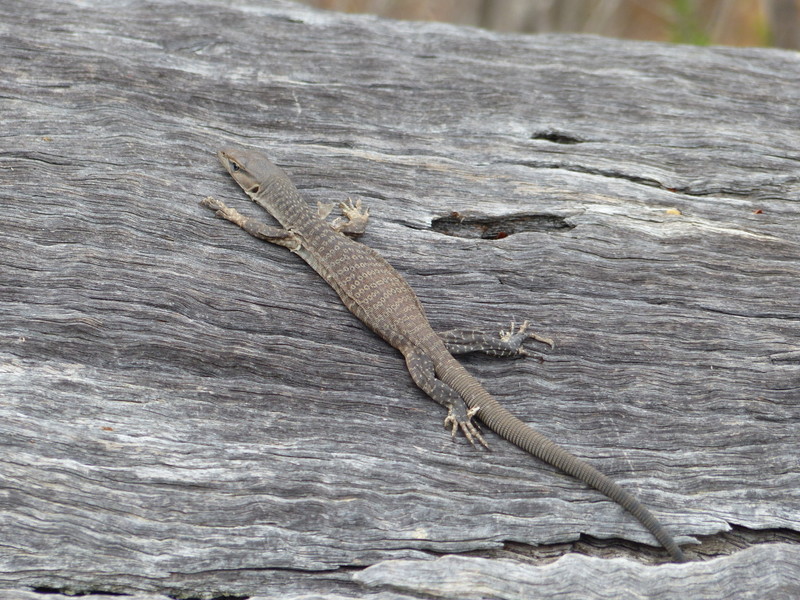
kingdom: Animalia
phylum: Chordata
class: Squamata
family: Varanidae
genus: Varanus
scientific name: Varanus tristis
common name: Arid monitor
